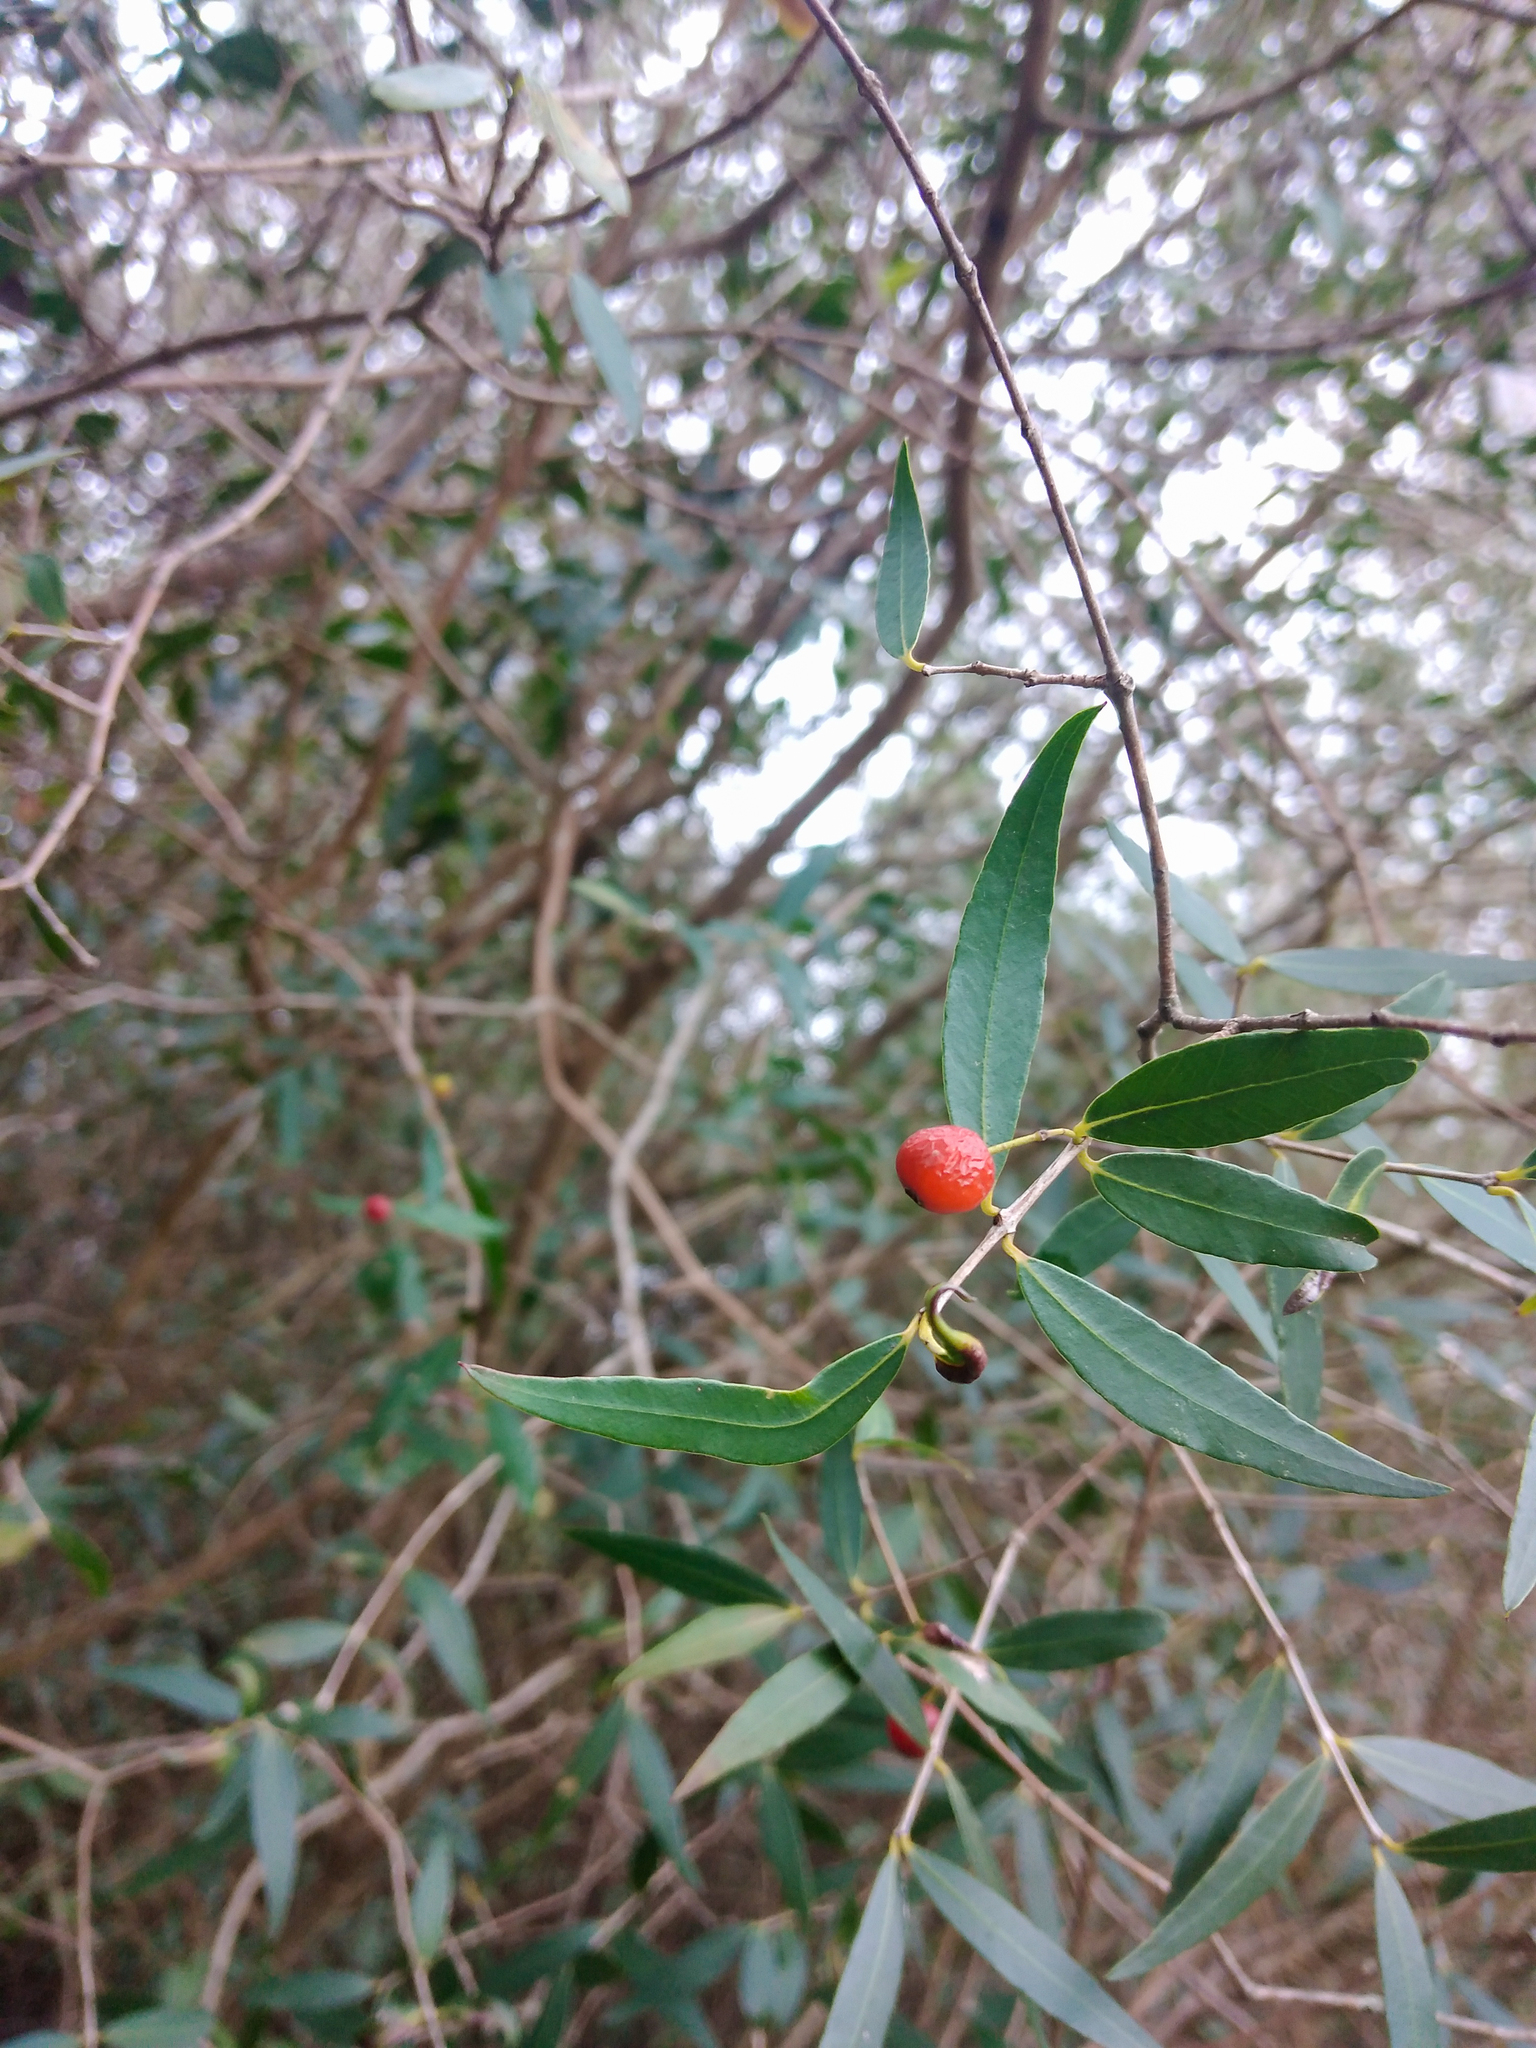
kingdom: Plantae
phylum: Tracheophyta
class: Magnoliopsida
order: Myrtales
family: Myrtaceae
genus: Blepharocalyx
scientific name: Blepharocalyx salicifolius
